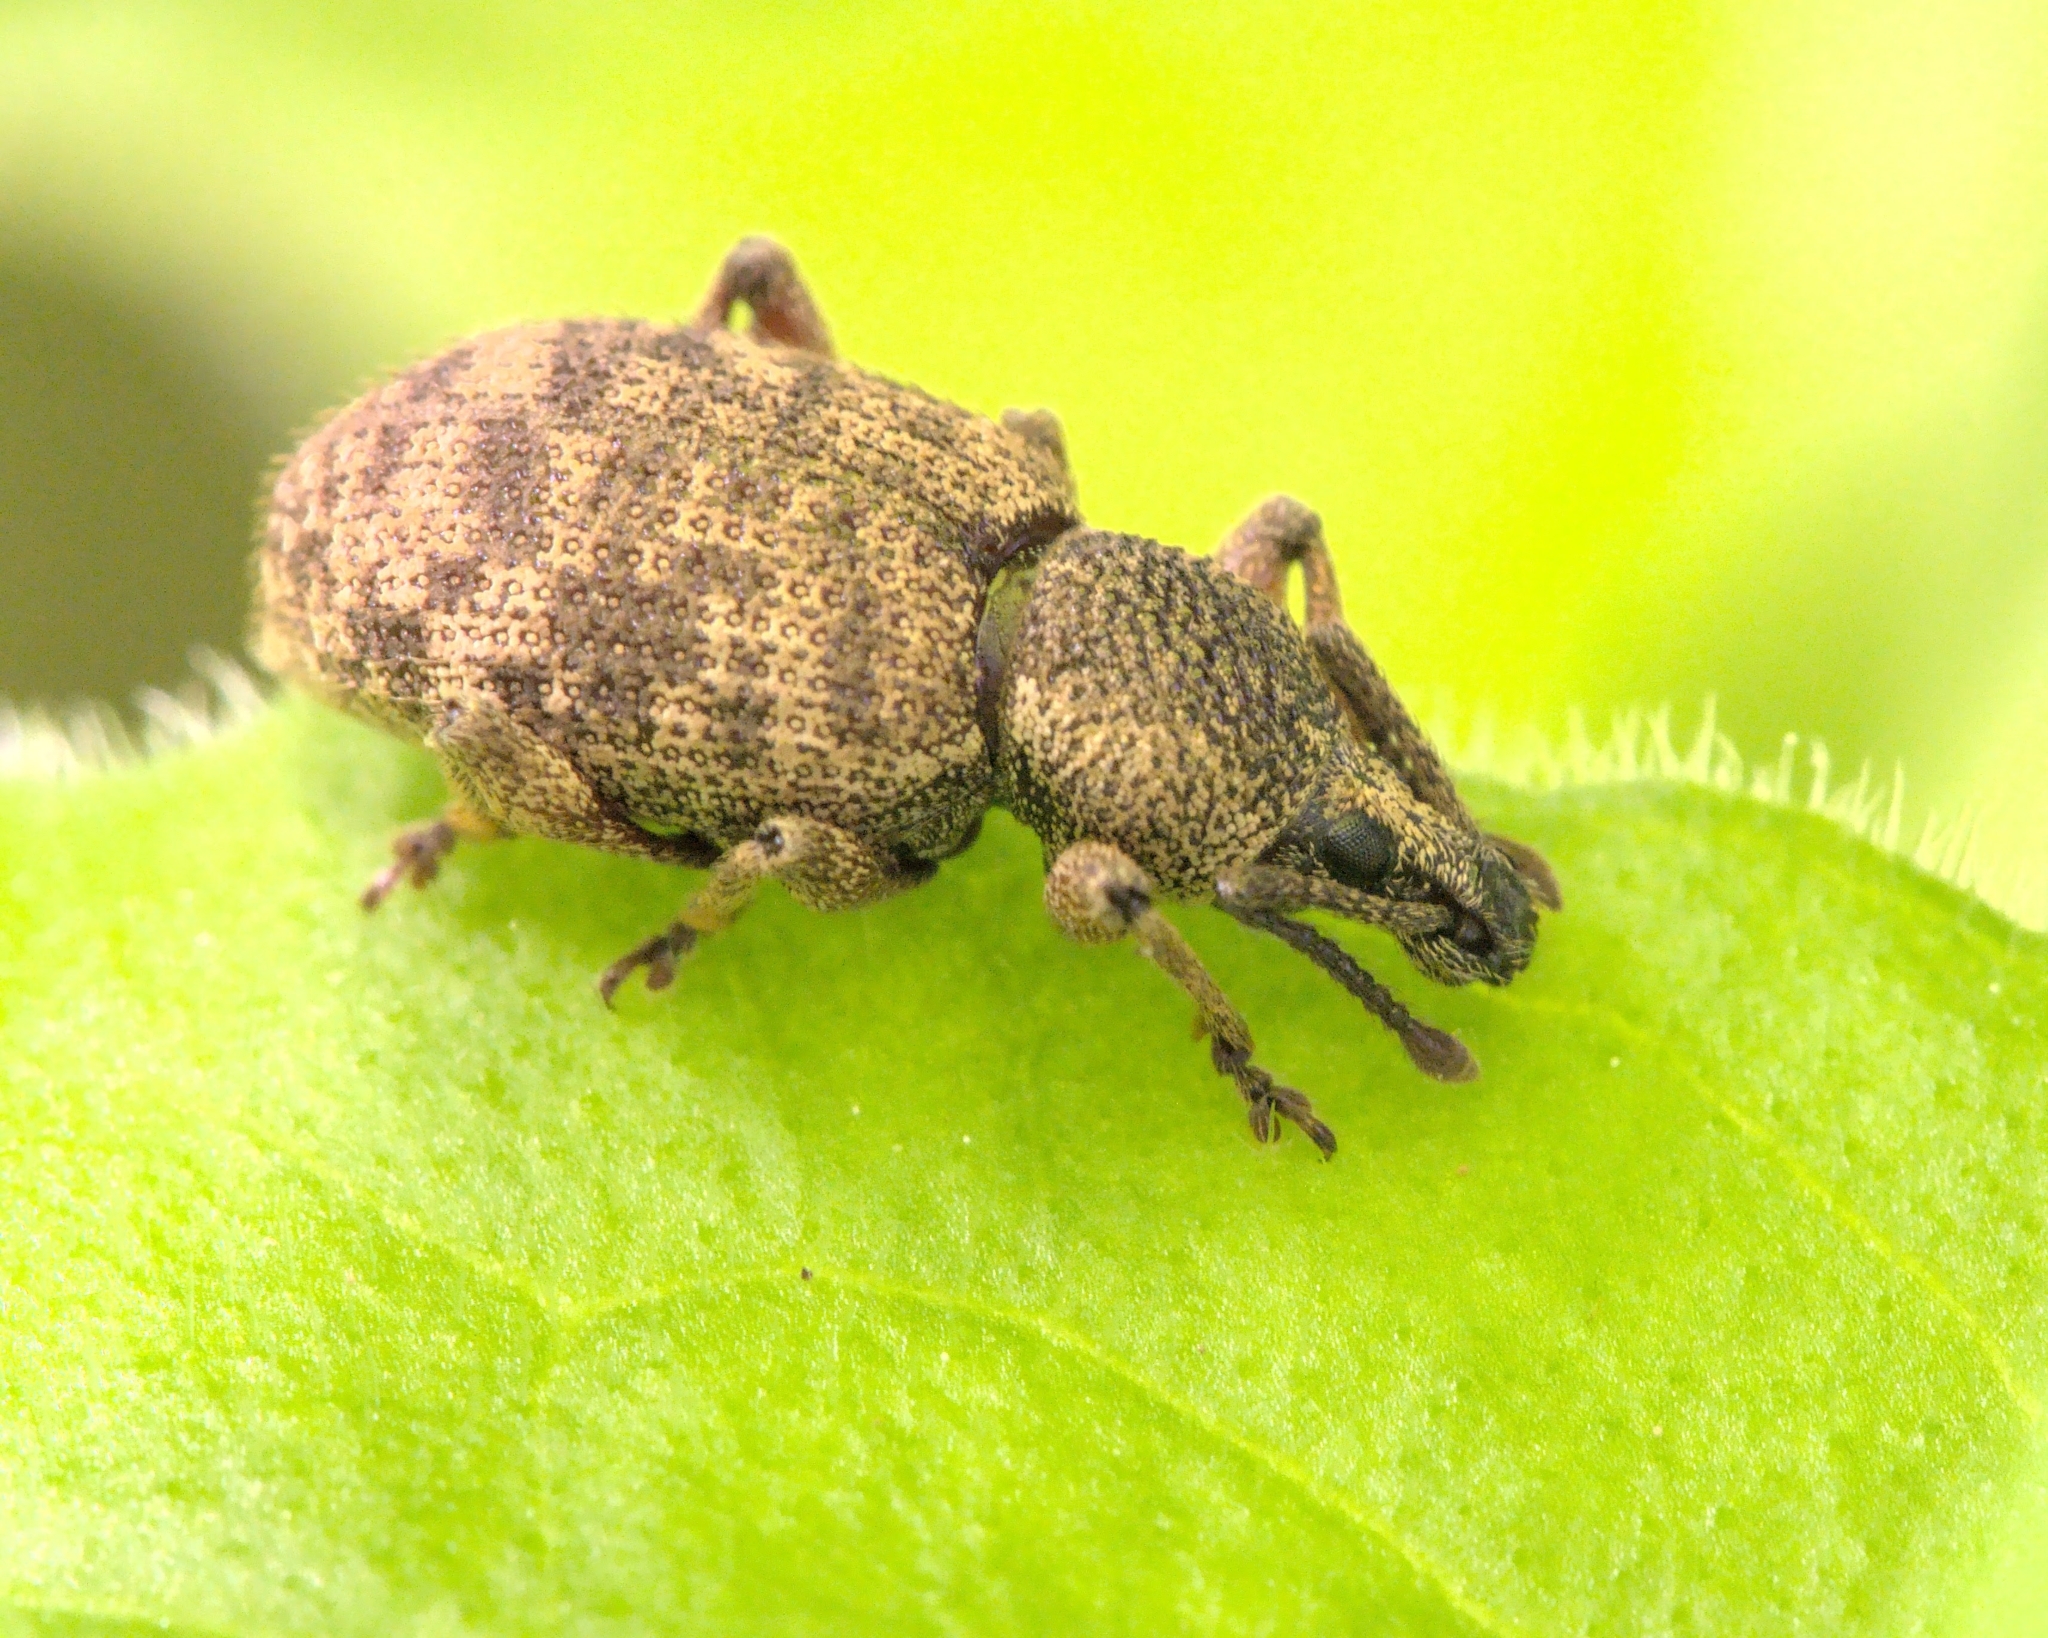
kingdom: Animalia
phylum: Arthropoda
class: Insecta
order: Coleoptera
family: Curculionidae
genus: Otiorhynchus
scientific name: Otiorhynchus singularis
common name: Clay-coloured weevil
